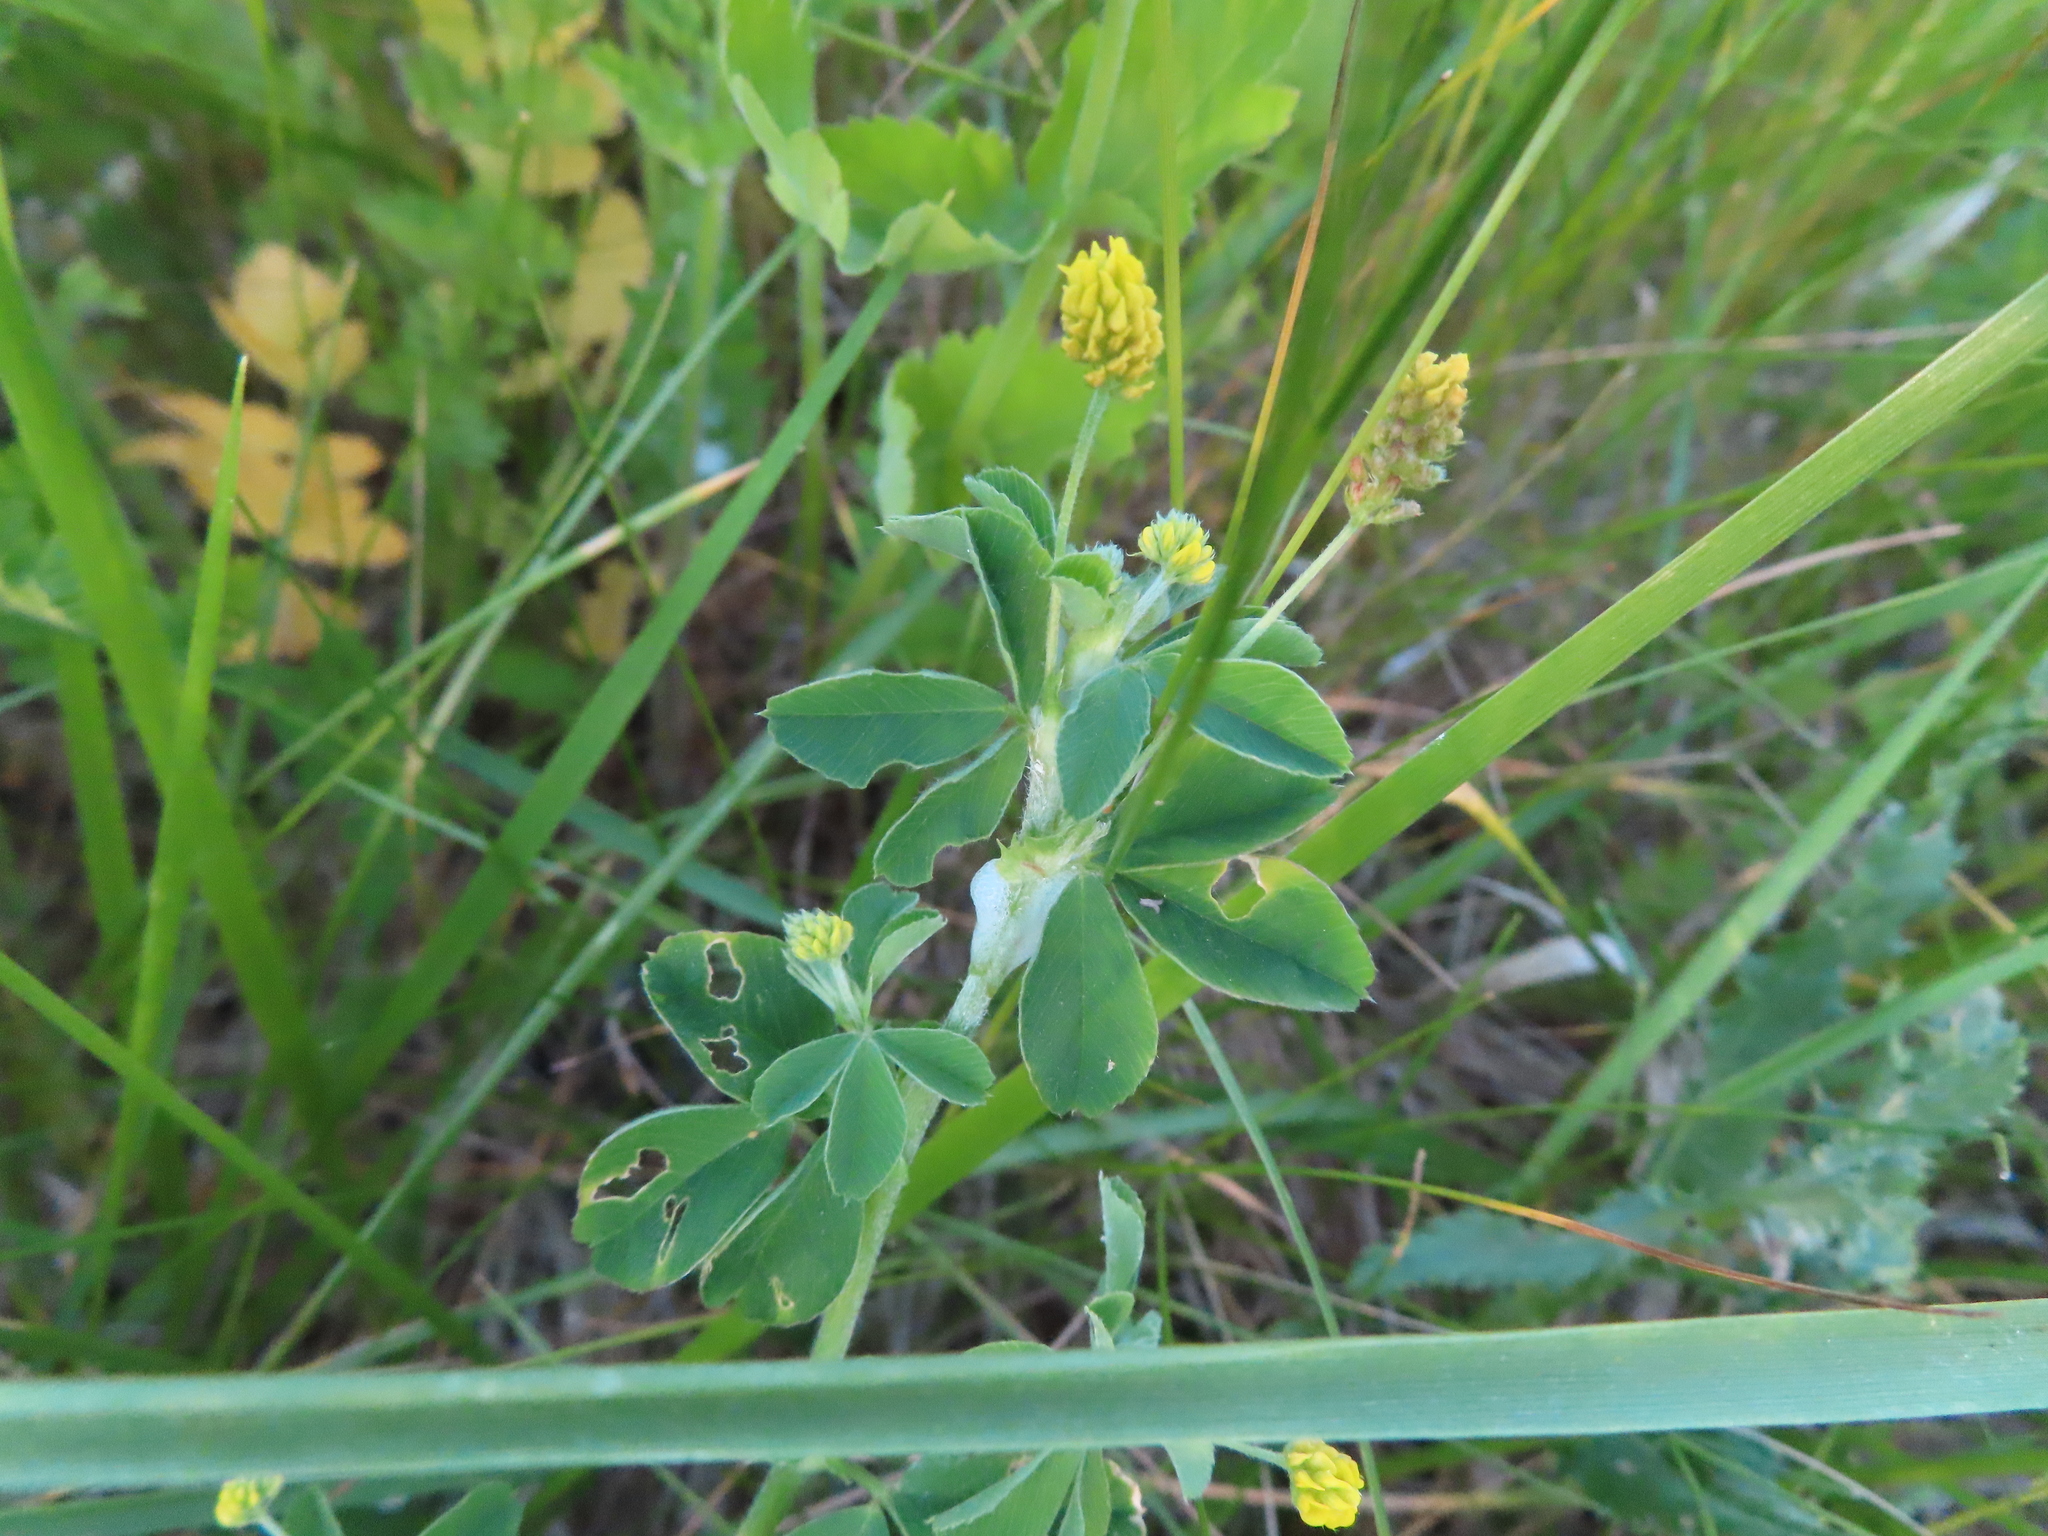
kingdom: Plantae
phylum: Tracheophyta
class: Magnoliopsida
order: Fabales
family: Fabaceae
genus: Medicago
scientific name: Medicago lupulina
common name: Black medick
